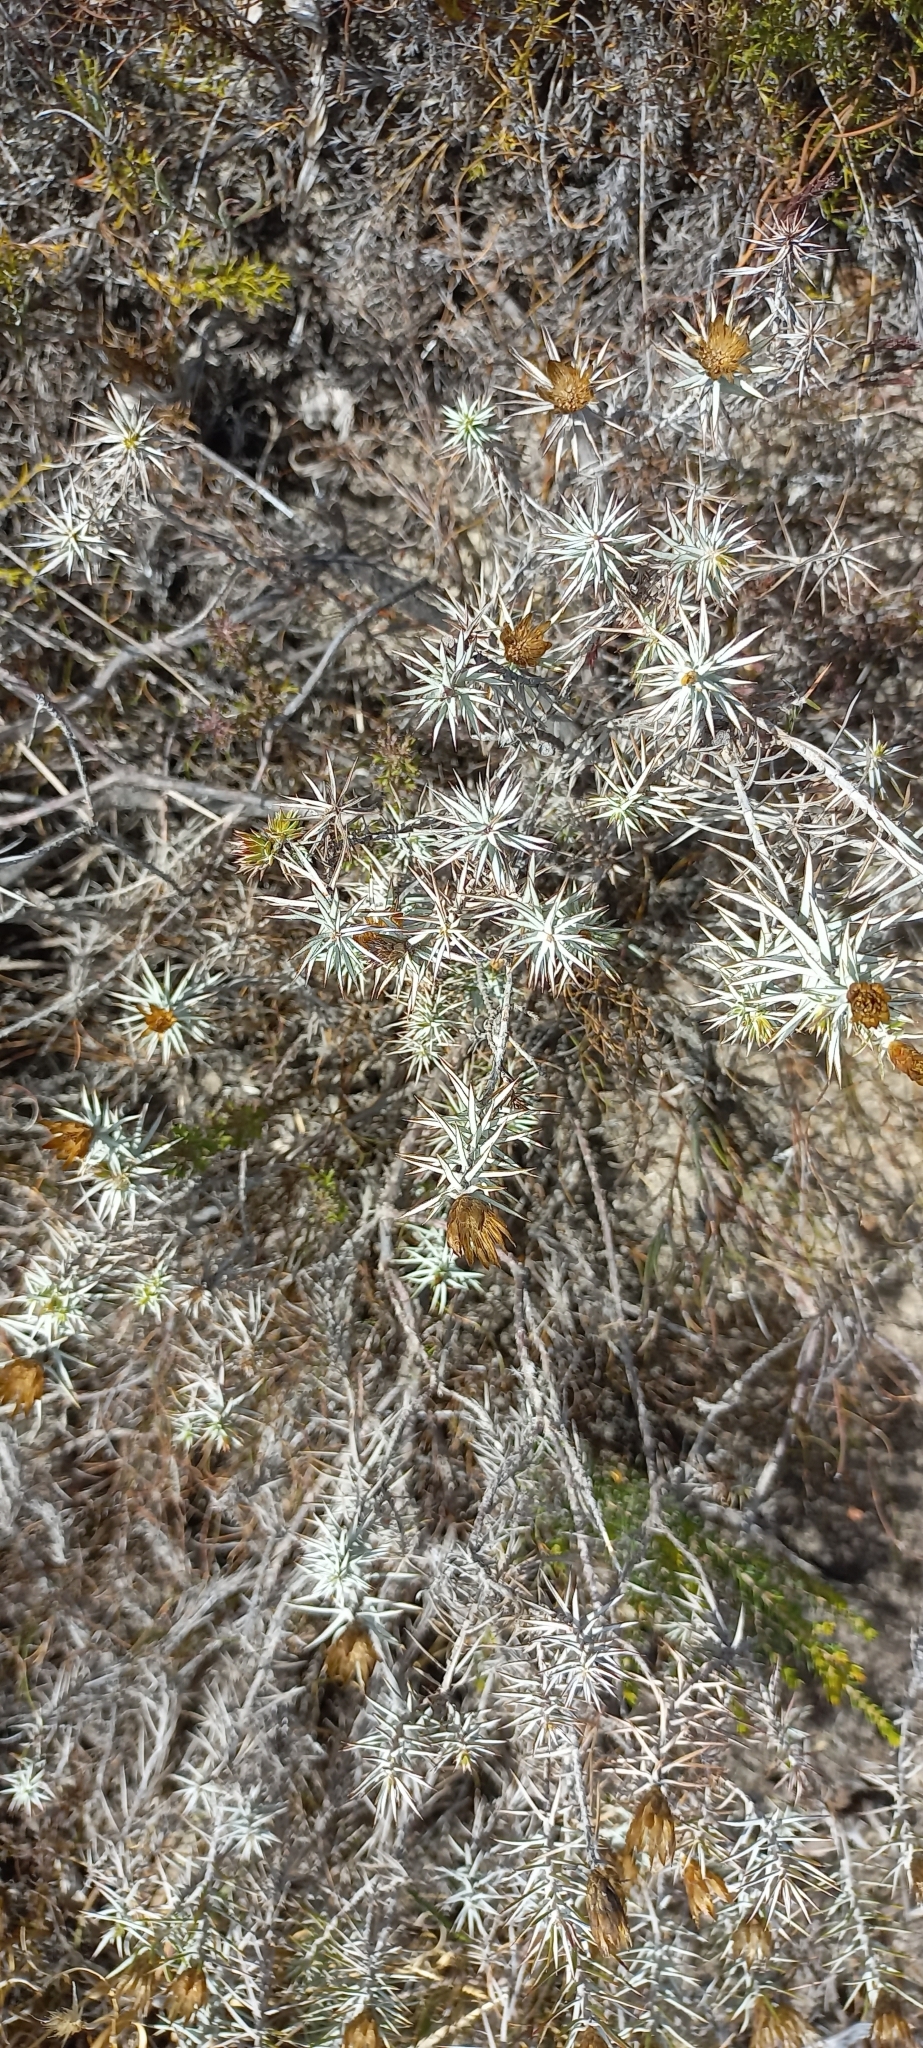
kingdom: Plantae
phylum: Tracheophyta
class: Magnoliopsida
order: Asterales
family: Asteraceae
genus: Oedera
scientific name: Oedera pungens
